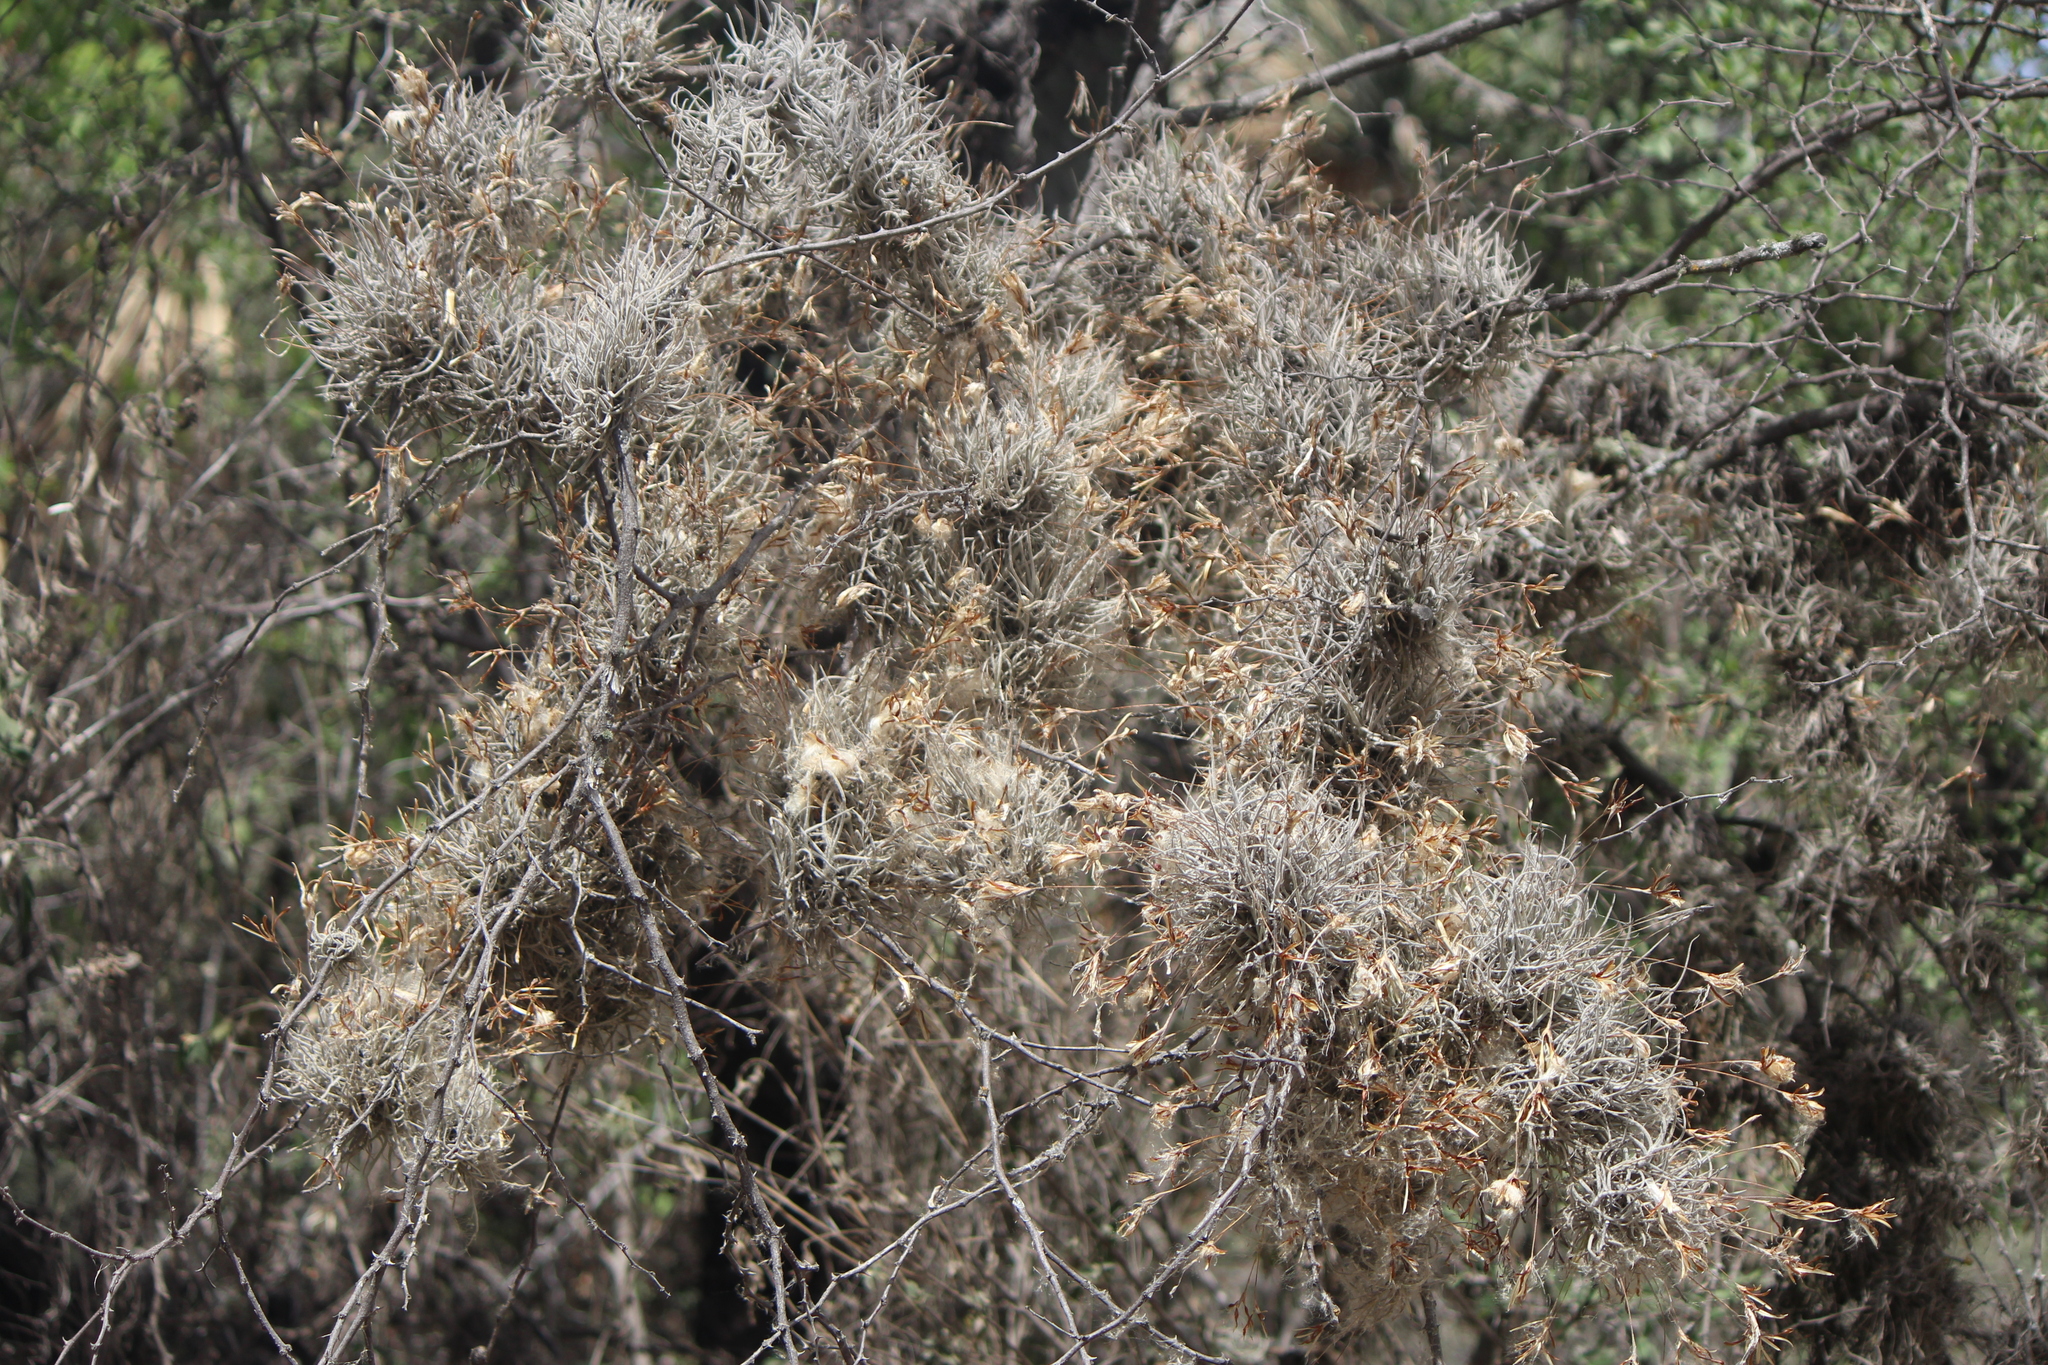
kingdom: Plantae
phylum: Tracheophyta
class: Liliopsida
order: Poales
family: Bromeliaceae
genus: Tillandsia
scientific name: Tillandsia recurvata
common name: Small ballmoss
